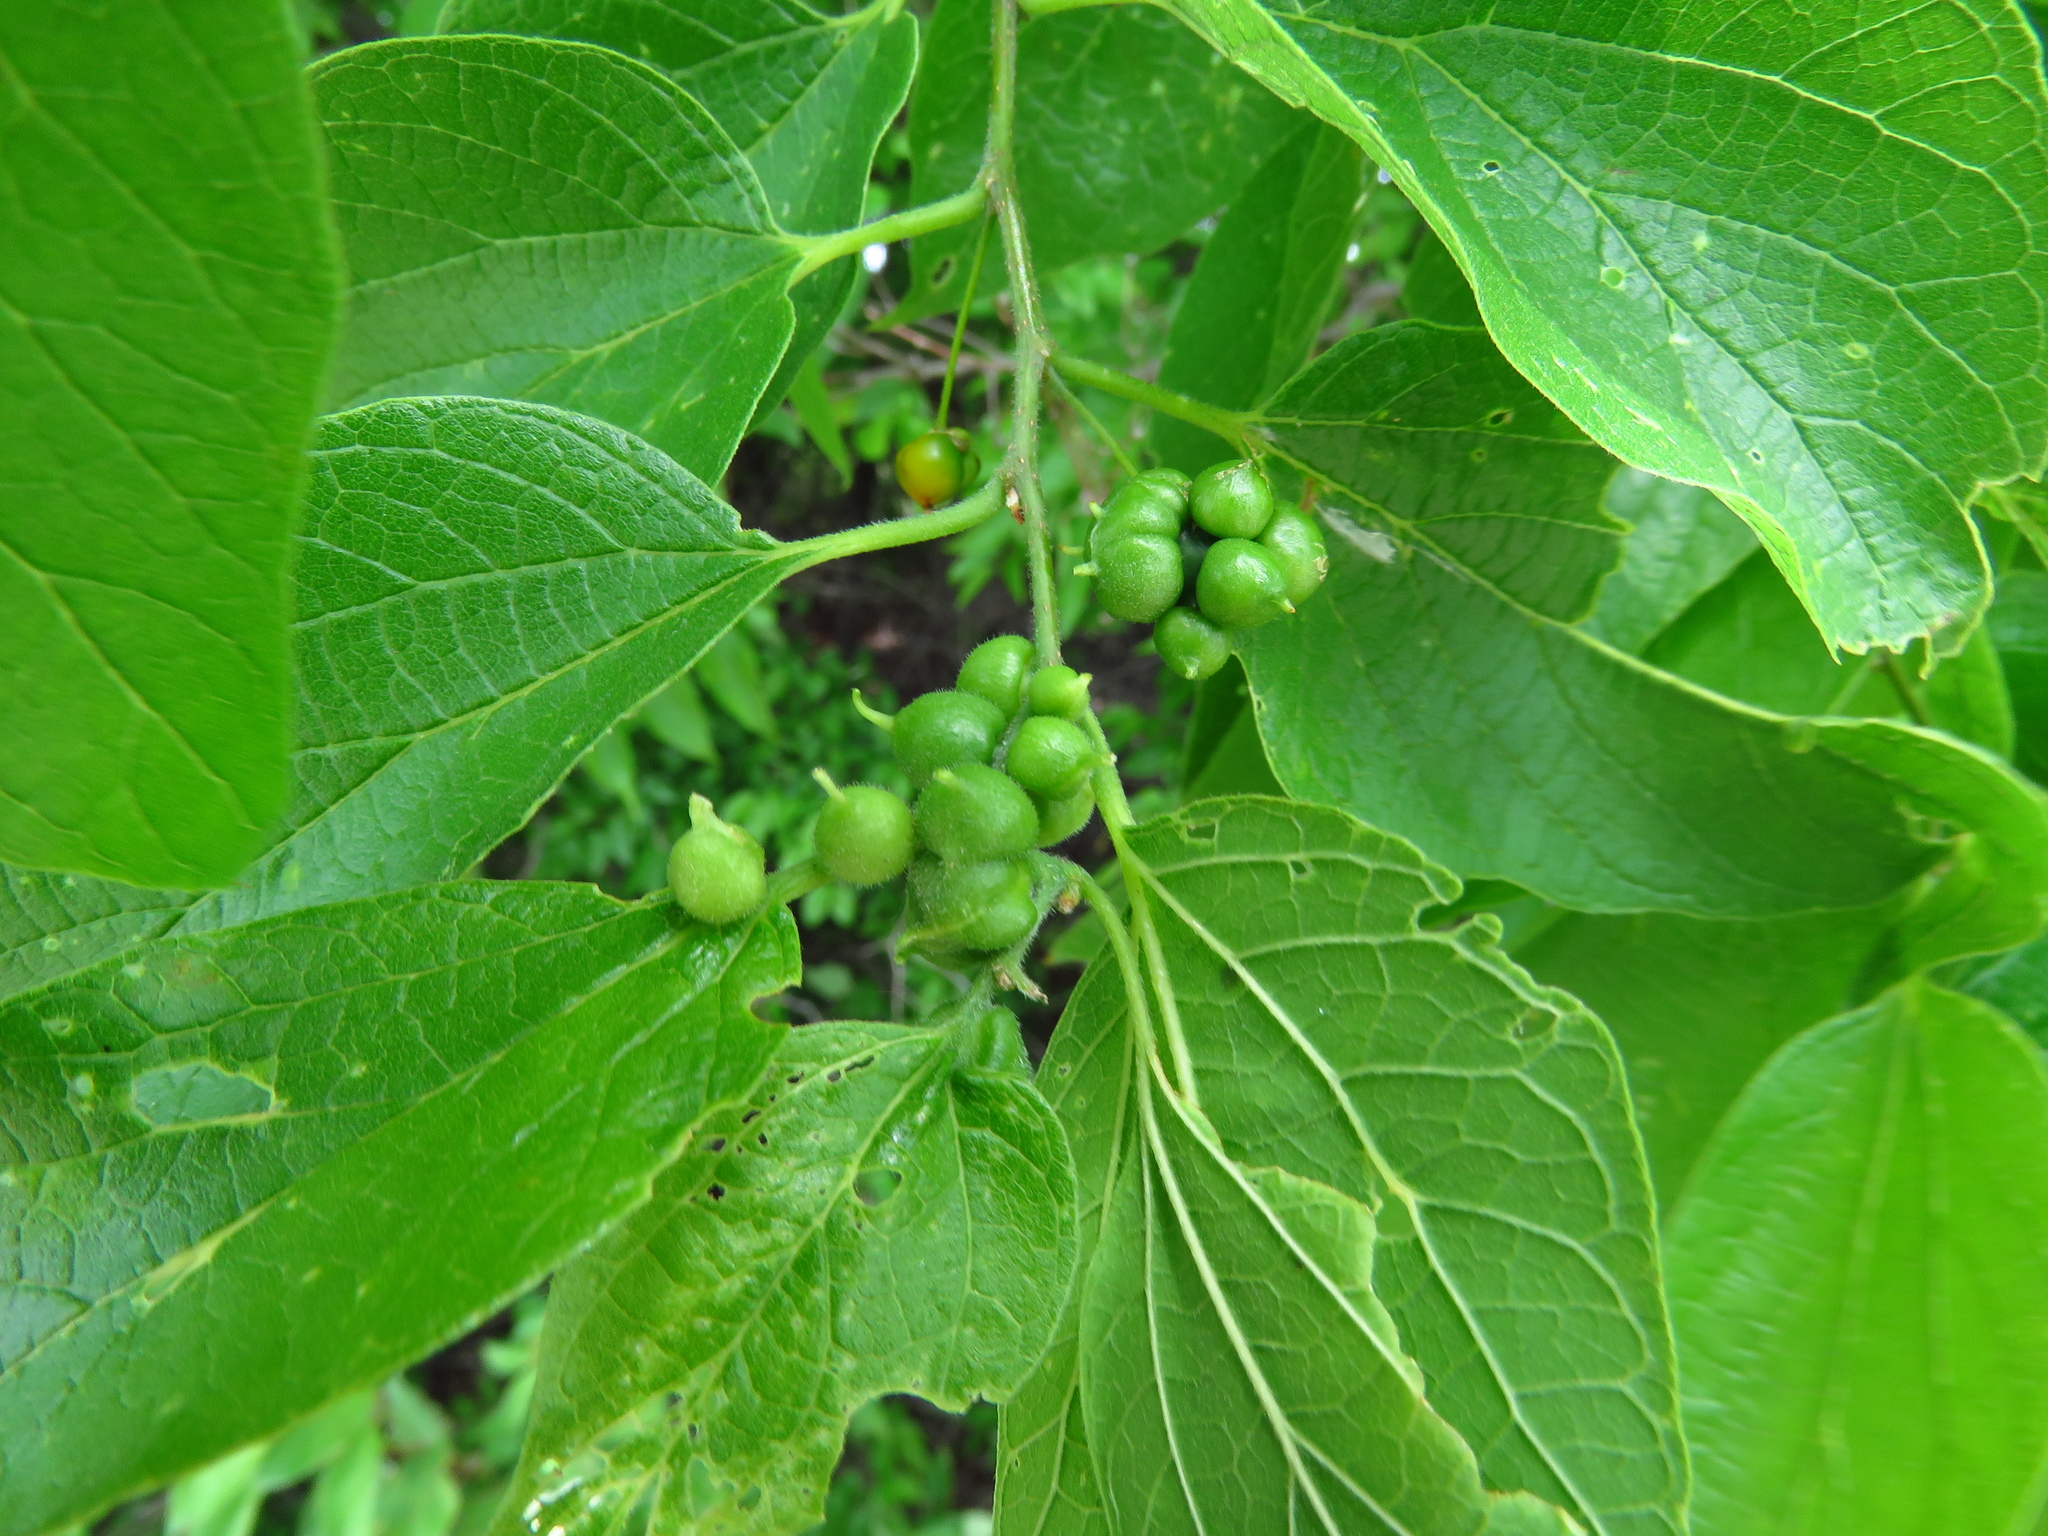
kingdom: Animalia
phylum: Arthropoda
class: Insecta
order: Diptera
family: Cecidomyiidae
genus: Celticecis
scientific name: Celticecis connata
